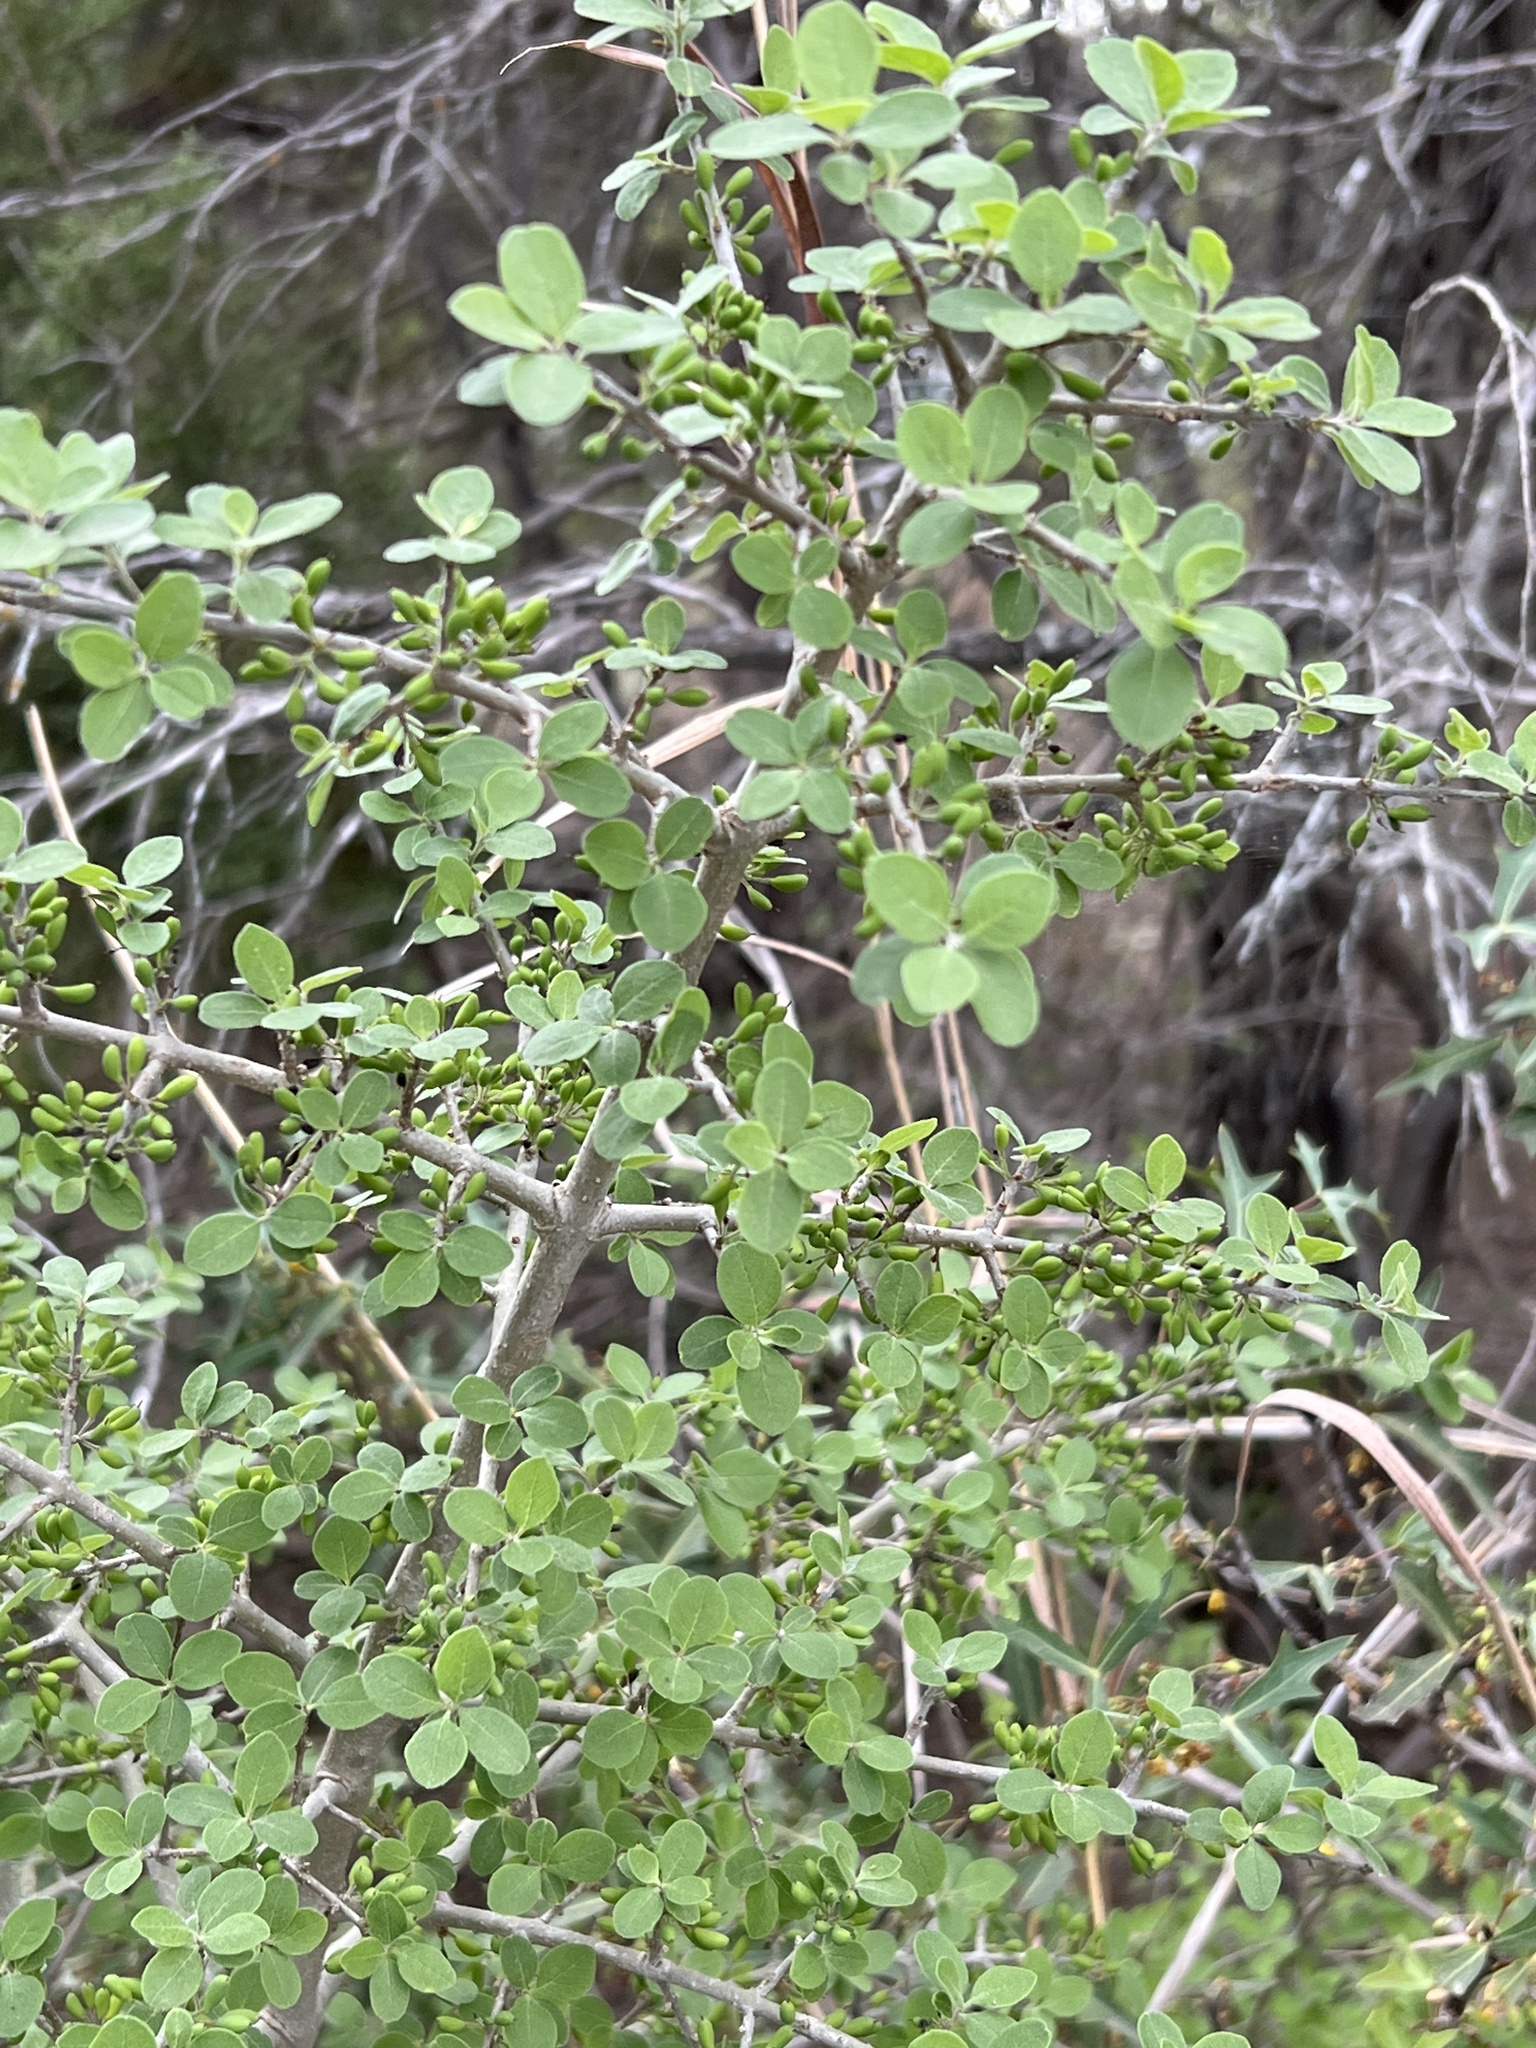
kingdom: Plantae
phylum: Tracheophyta
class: Magnoliopsida
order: Lamiales
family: Oleaceae
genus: Forestiera
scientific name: Forestiera pubescens
